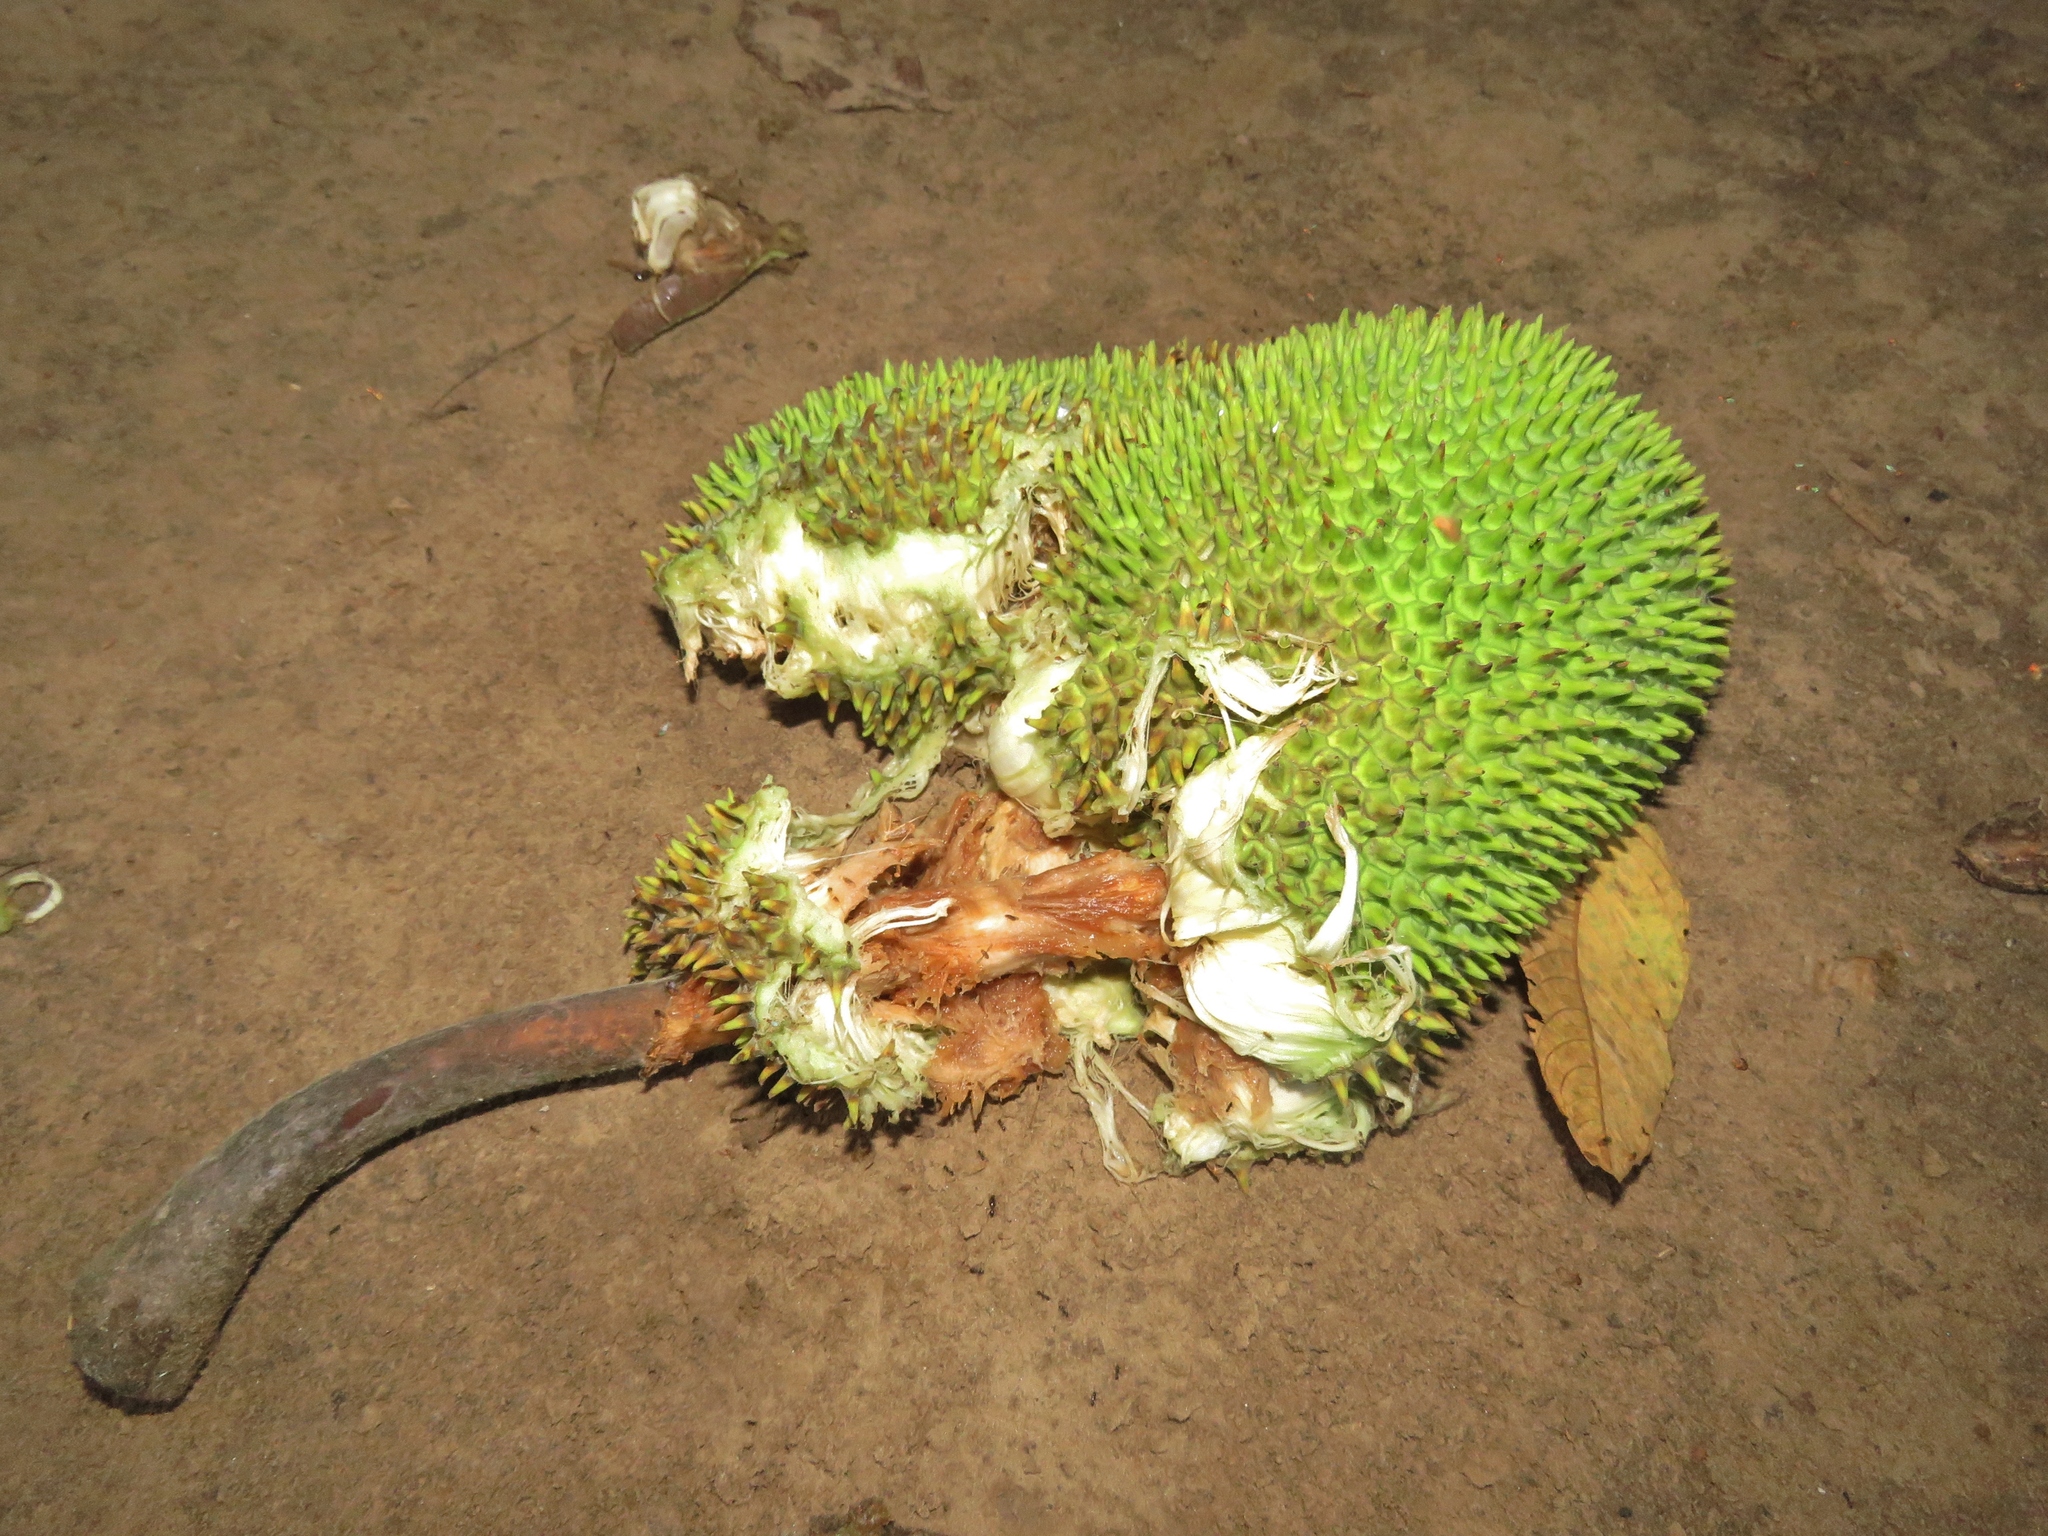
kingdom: Plantae
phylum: Tracheophyta
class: Magnoliopsida
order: Rosales
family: Moraceae
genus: Artocarpus
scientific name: Artocarpus altilis
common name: Breadfruit
